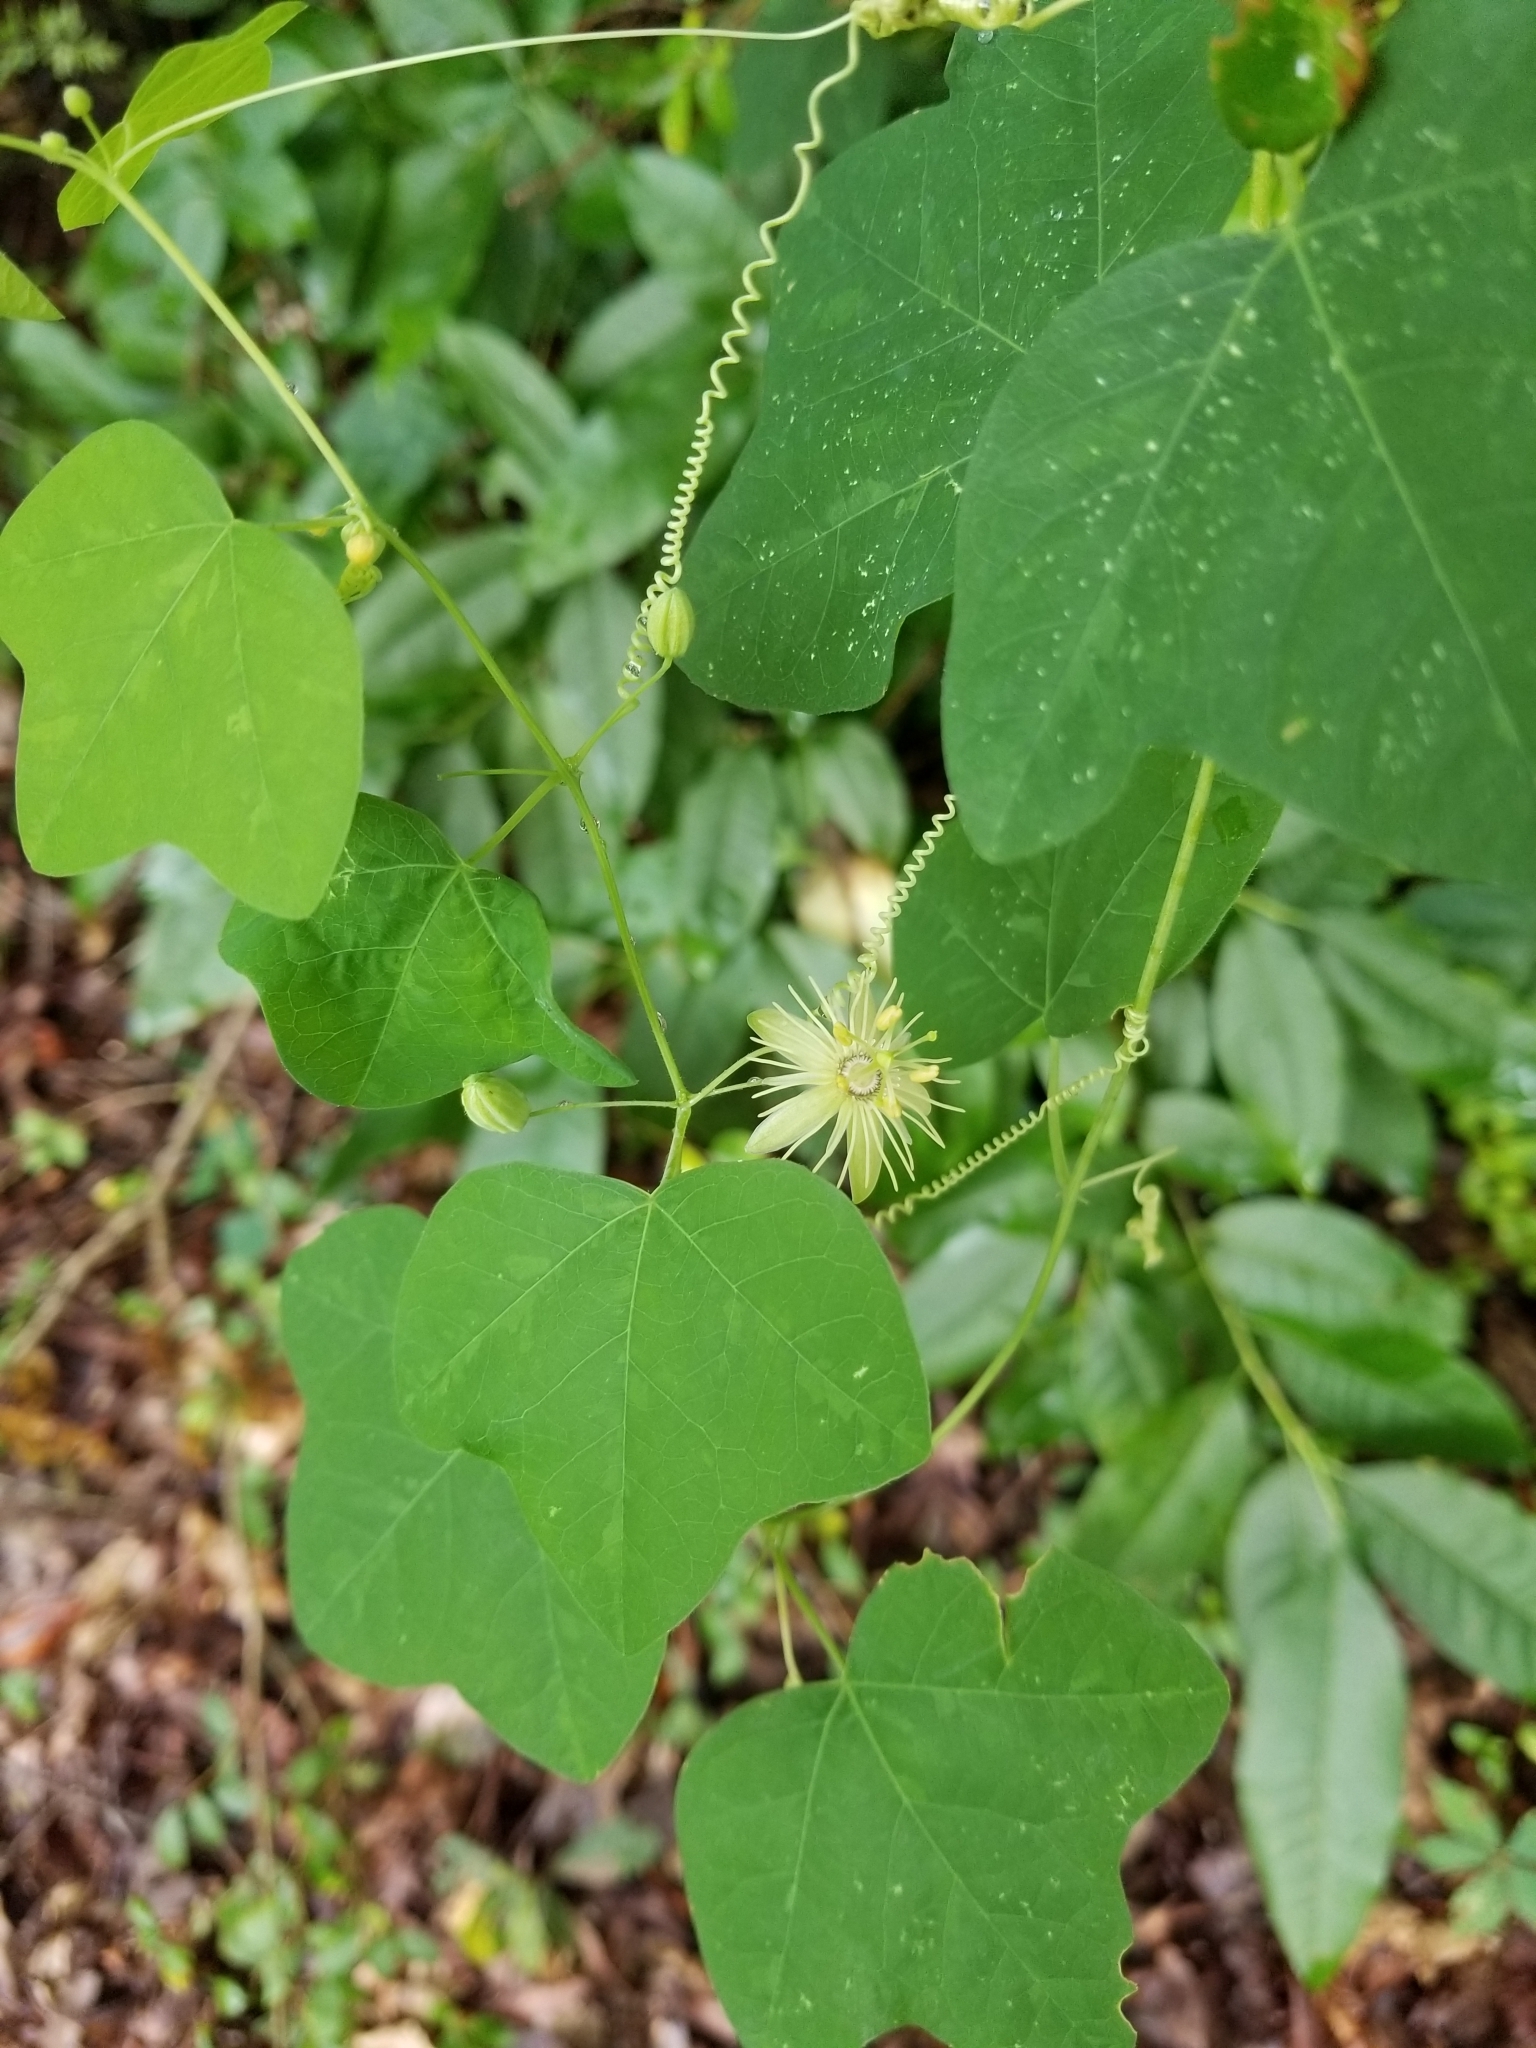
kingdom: Plantae
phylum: Tracheophyta
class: Magnoliopsida
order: Malpighiales
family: Passifloraceae
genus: Passiflora
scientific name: Passiflora lutea
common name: Yellow passionflower
